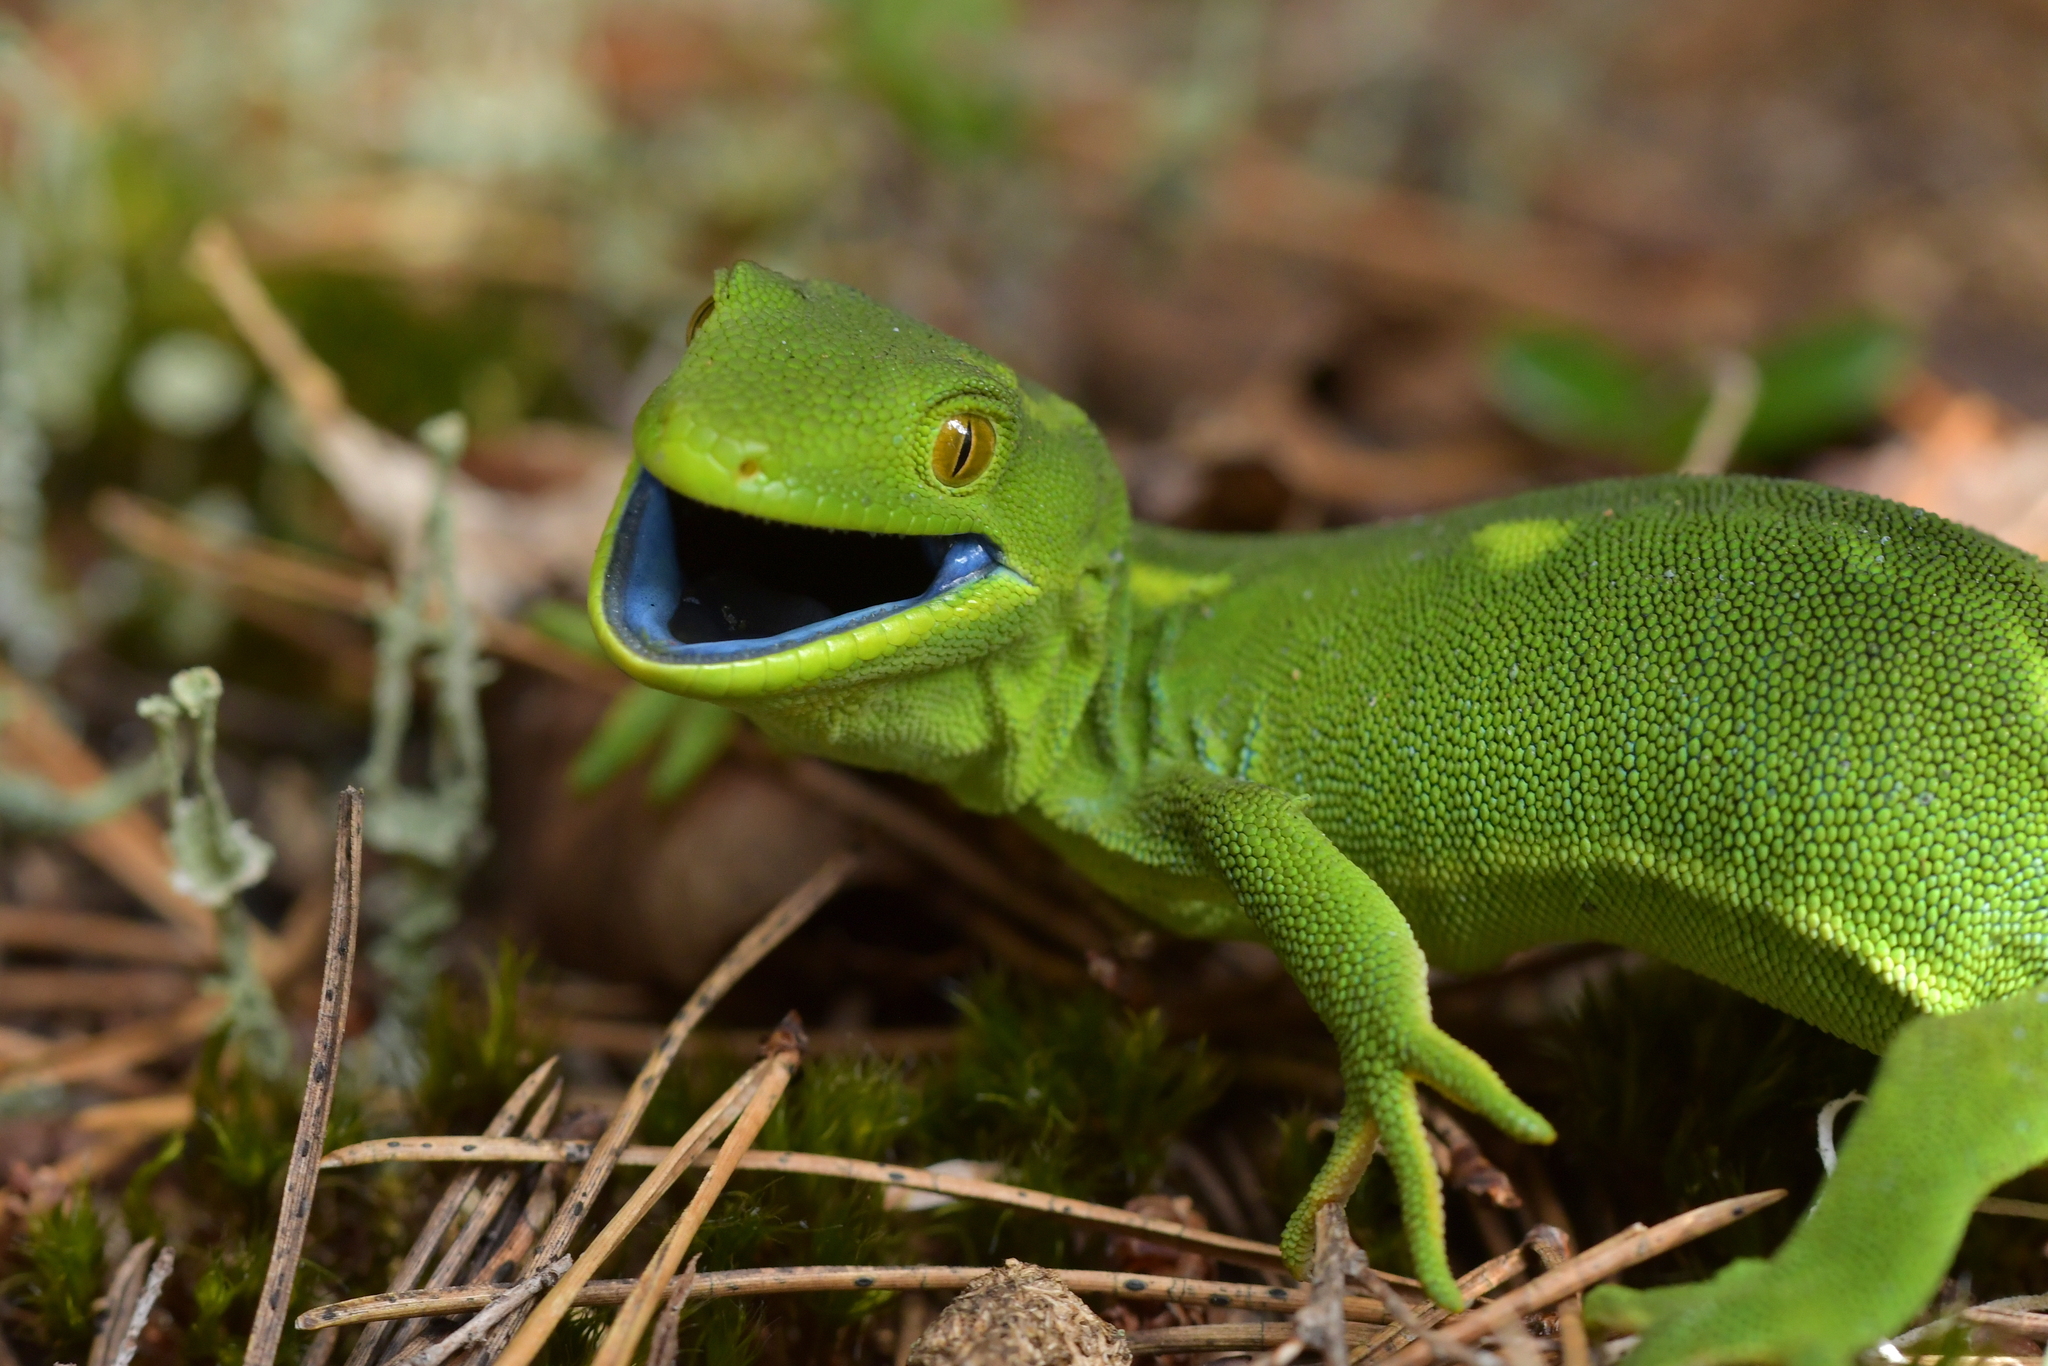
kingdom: Animalia
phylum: Chordata
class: Squamata
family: Diplodactylidae
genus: Naultinus
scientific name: Naultinus punctatus
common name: Wellington green gecko
